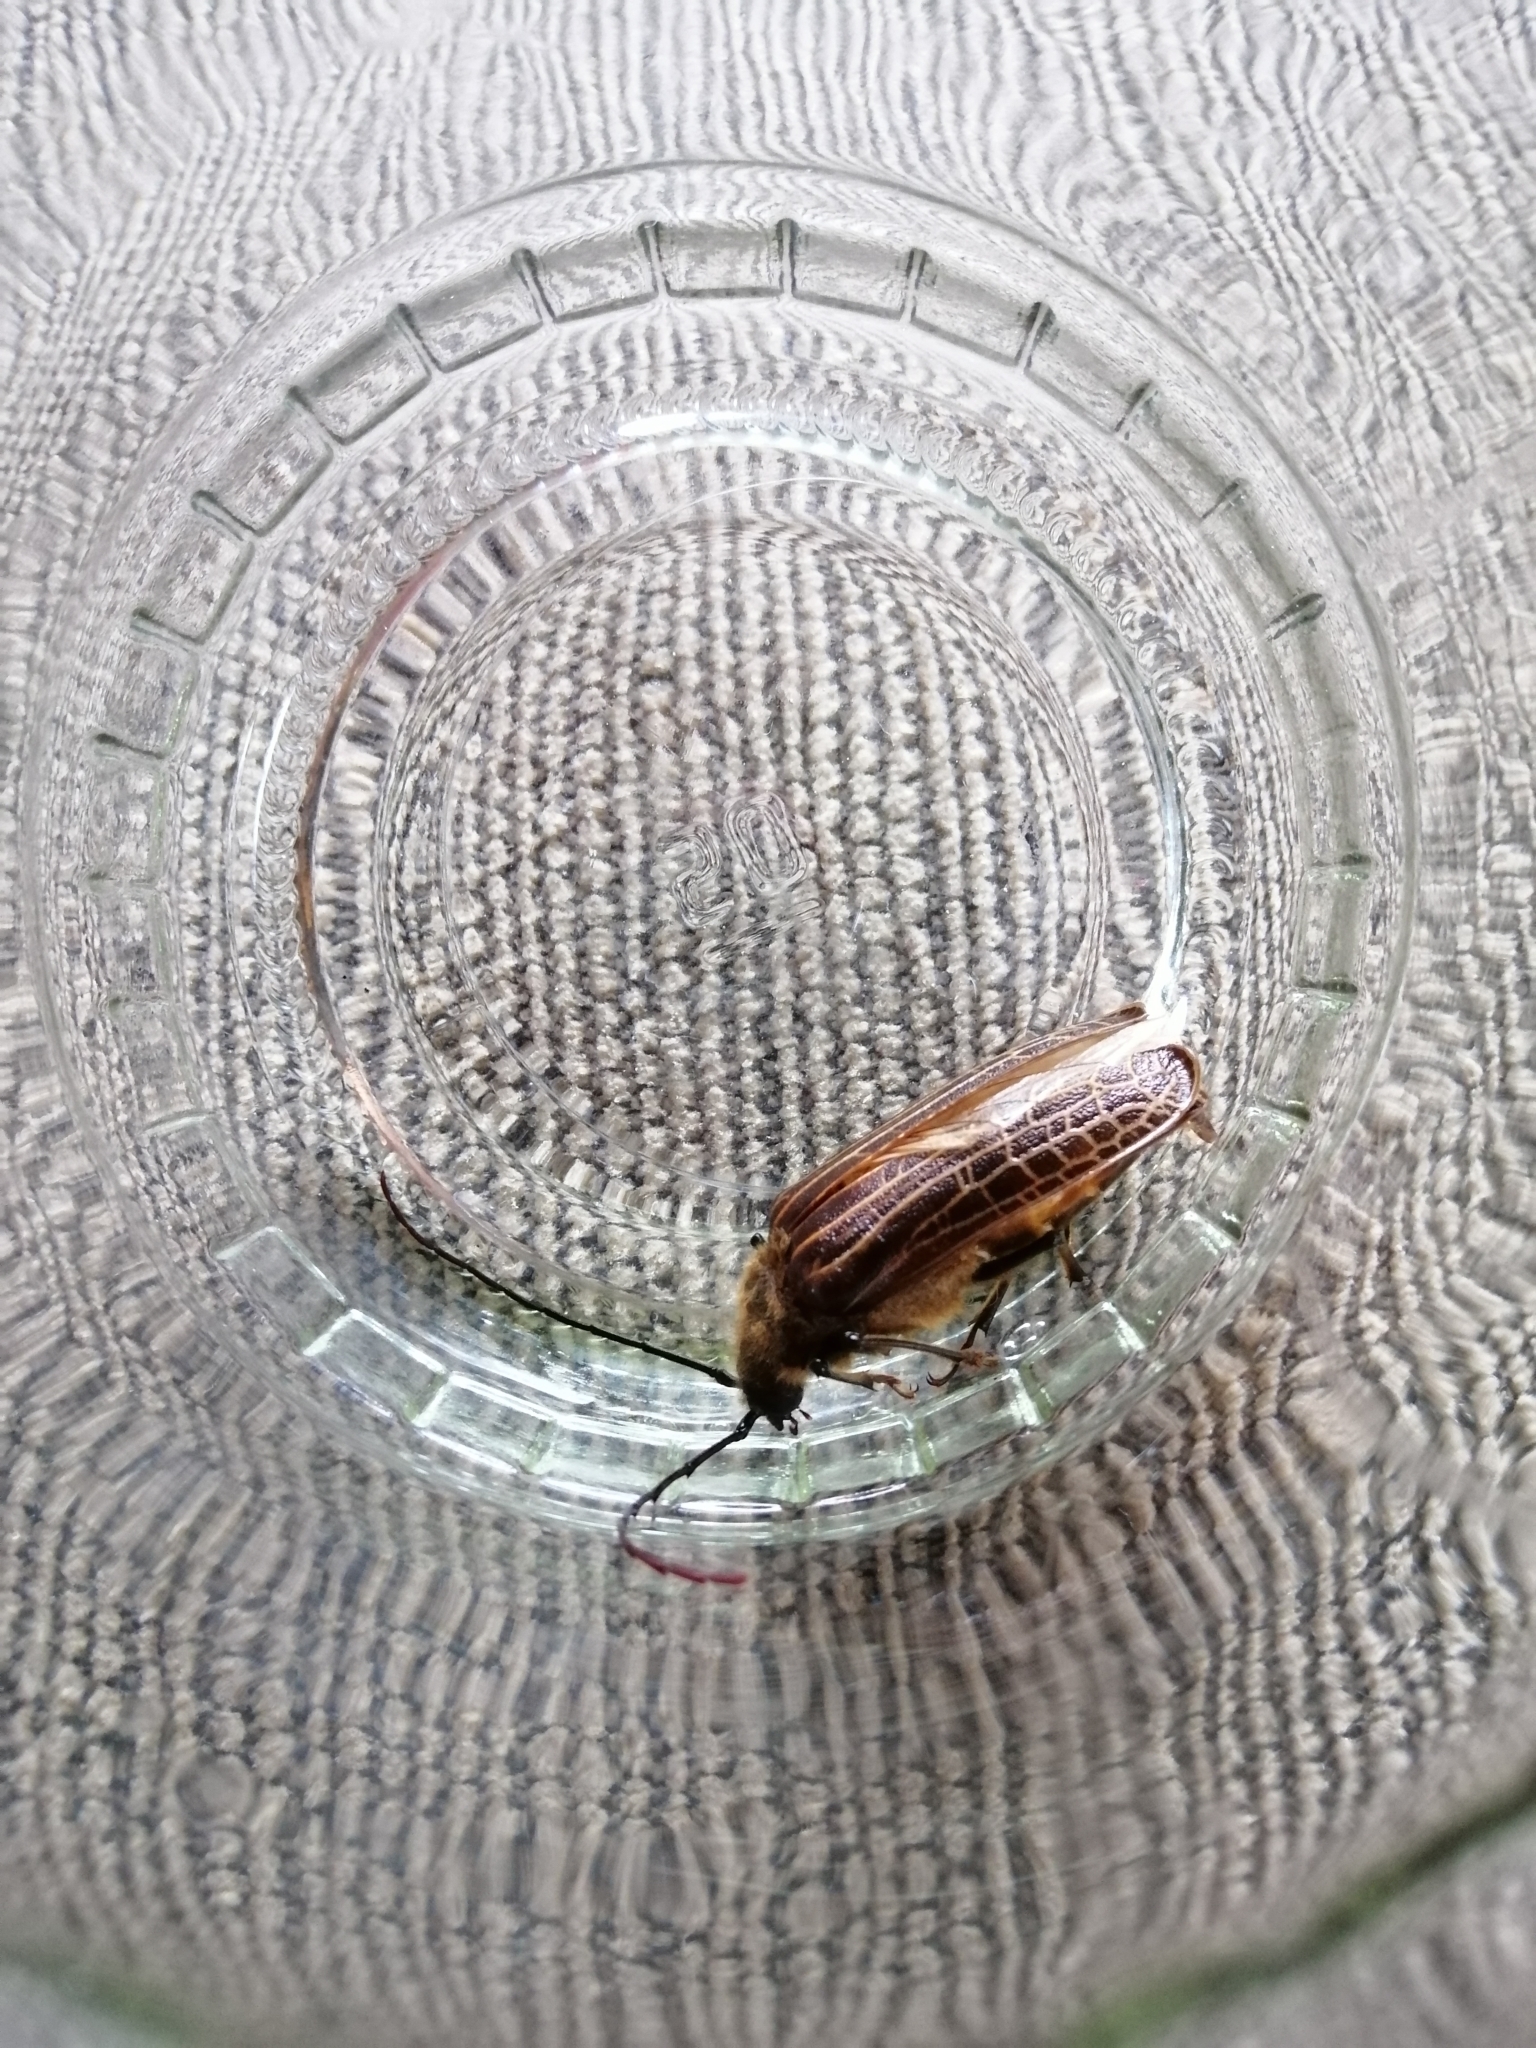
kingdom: Animalia
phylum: Arthropoda
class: Insecta
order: Coleoptera
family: Cerambycidae
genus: Prionoplus
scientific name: Prionoplus reticularis
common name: Huhu beetle
